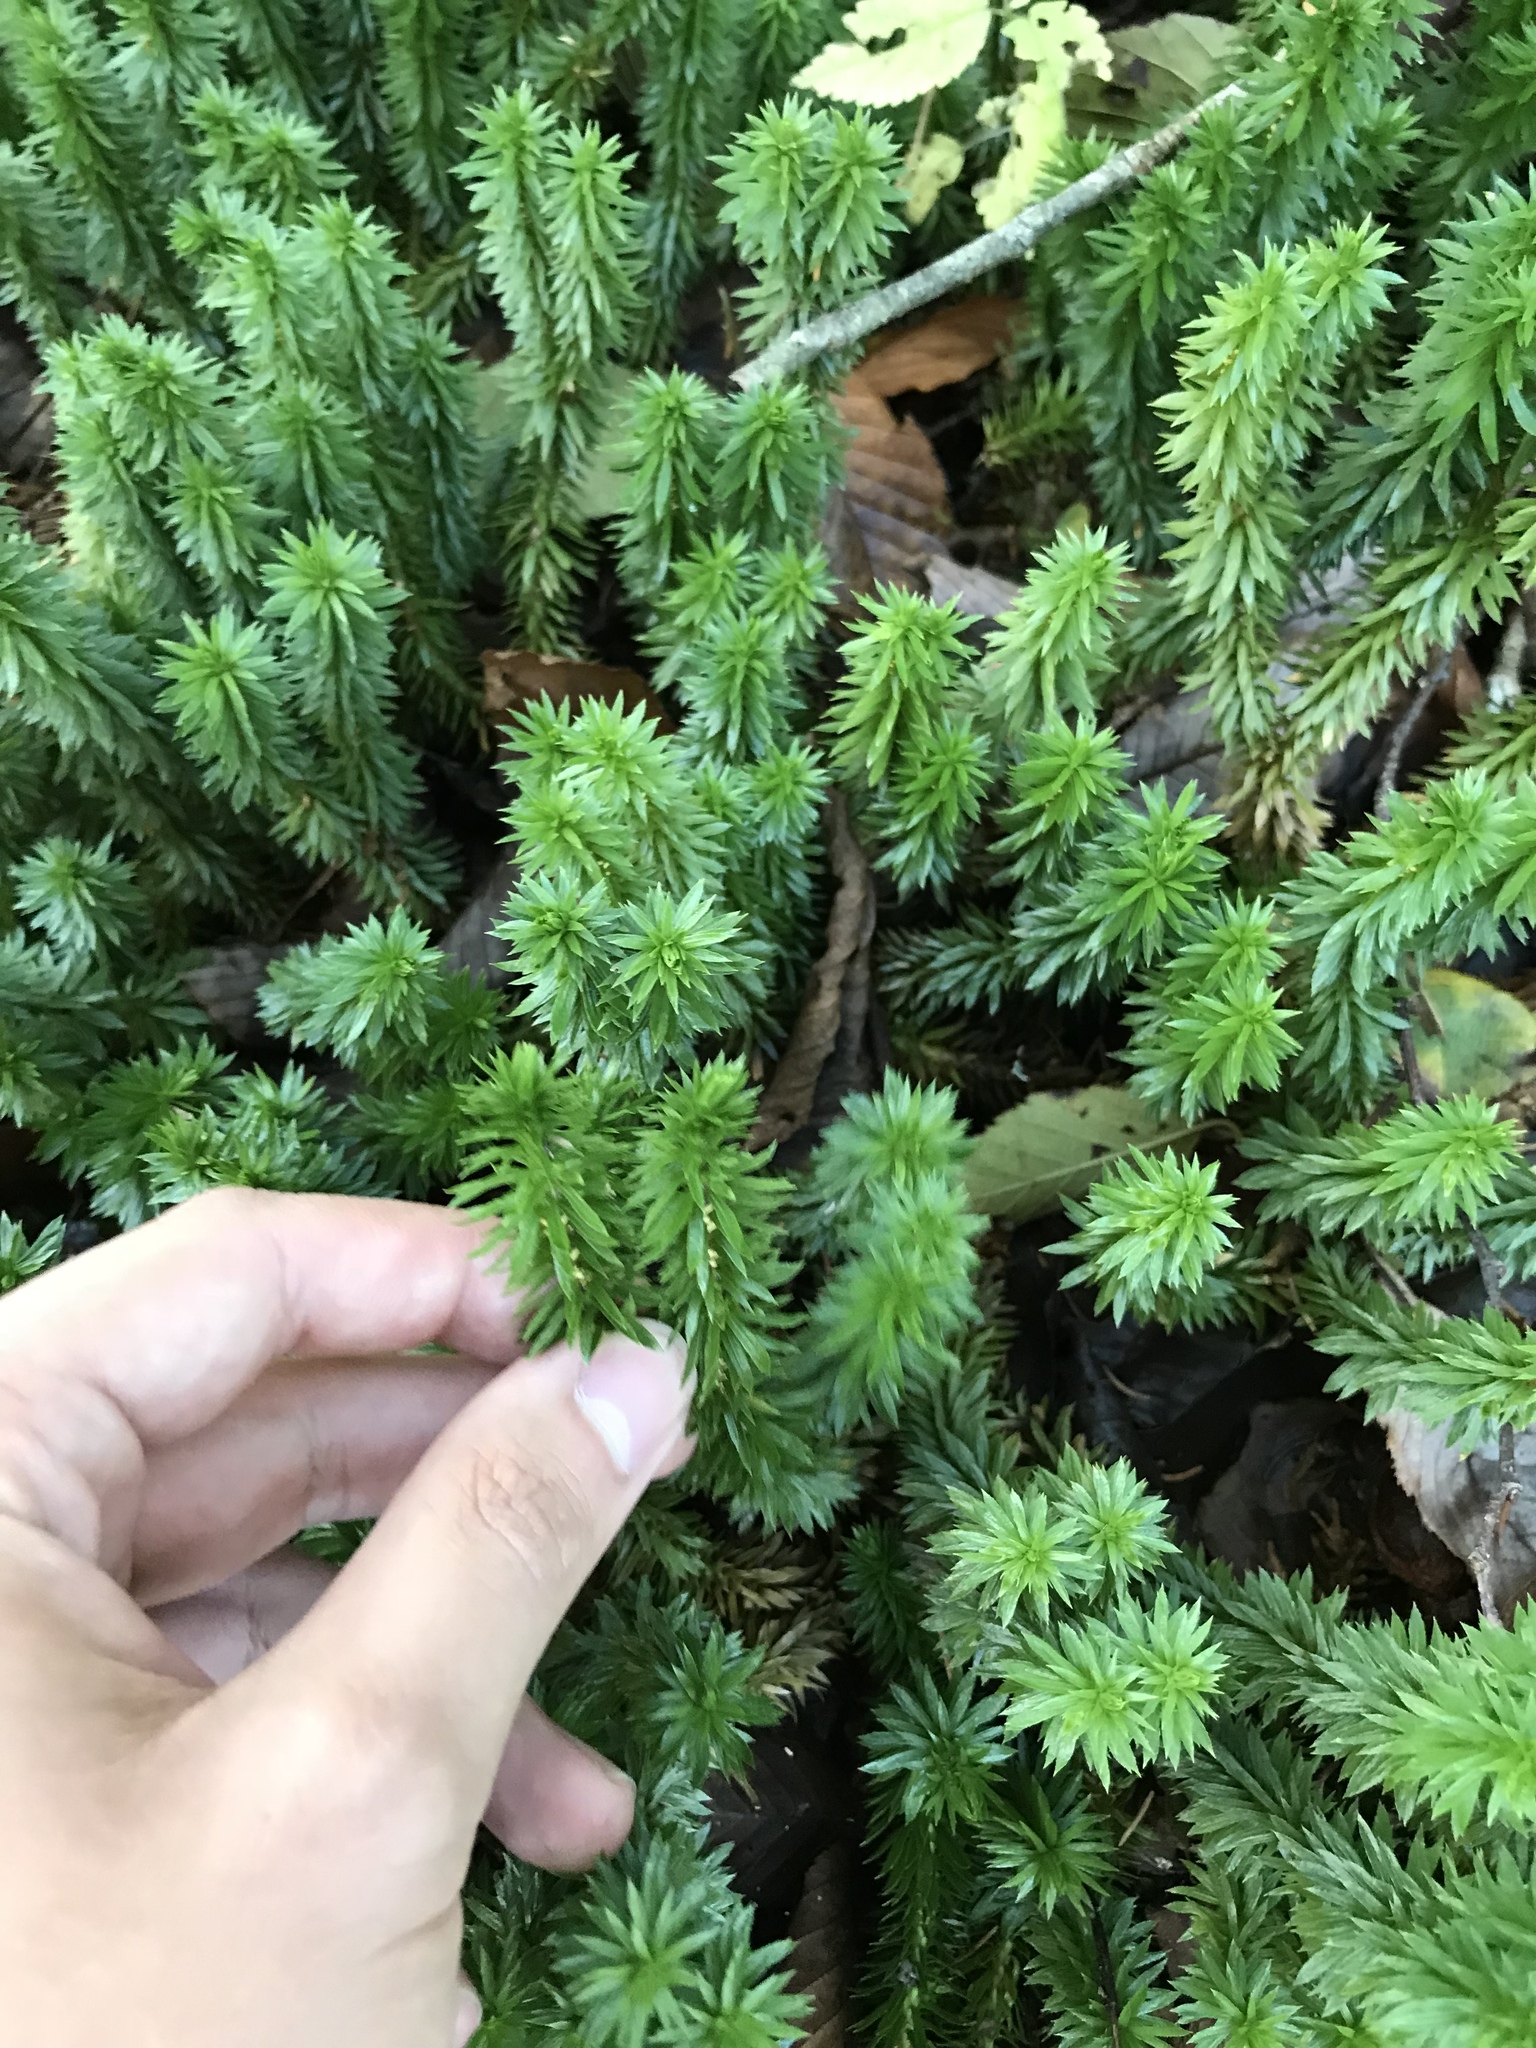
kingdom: Plantae
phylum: Tracheophyta
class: Lycopodiopsida
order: Lycopodiales
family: Lycopodiaceae
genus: Huperzia
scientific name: Huperzia lucidula
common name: Shining clubmoss
